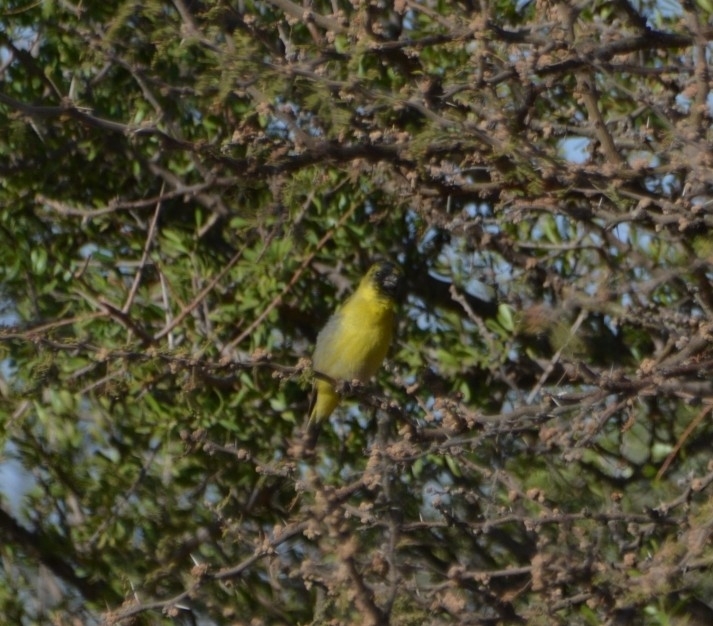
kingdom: Animalia
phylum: Chordata
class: Aves
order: Passeriformes
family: Fringillidae
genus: Spinus
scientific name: Spinus magellanicus
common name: Hooded siskin
